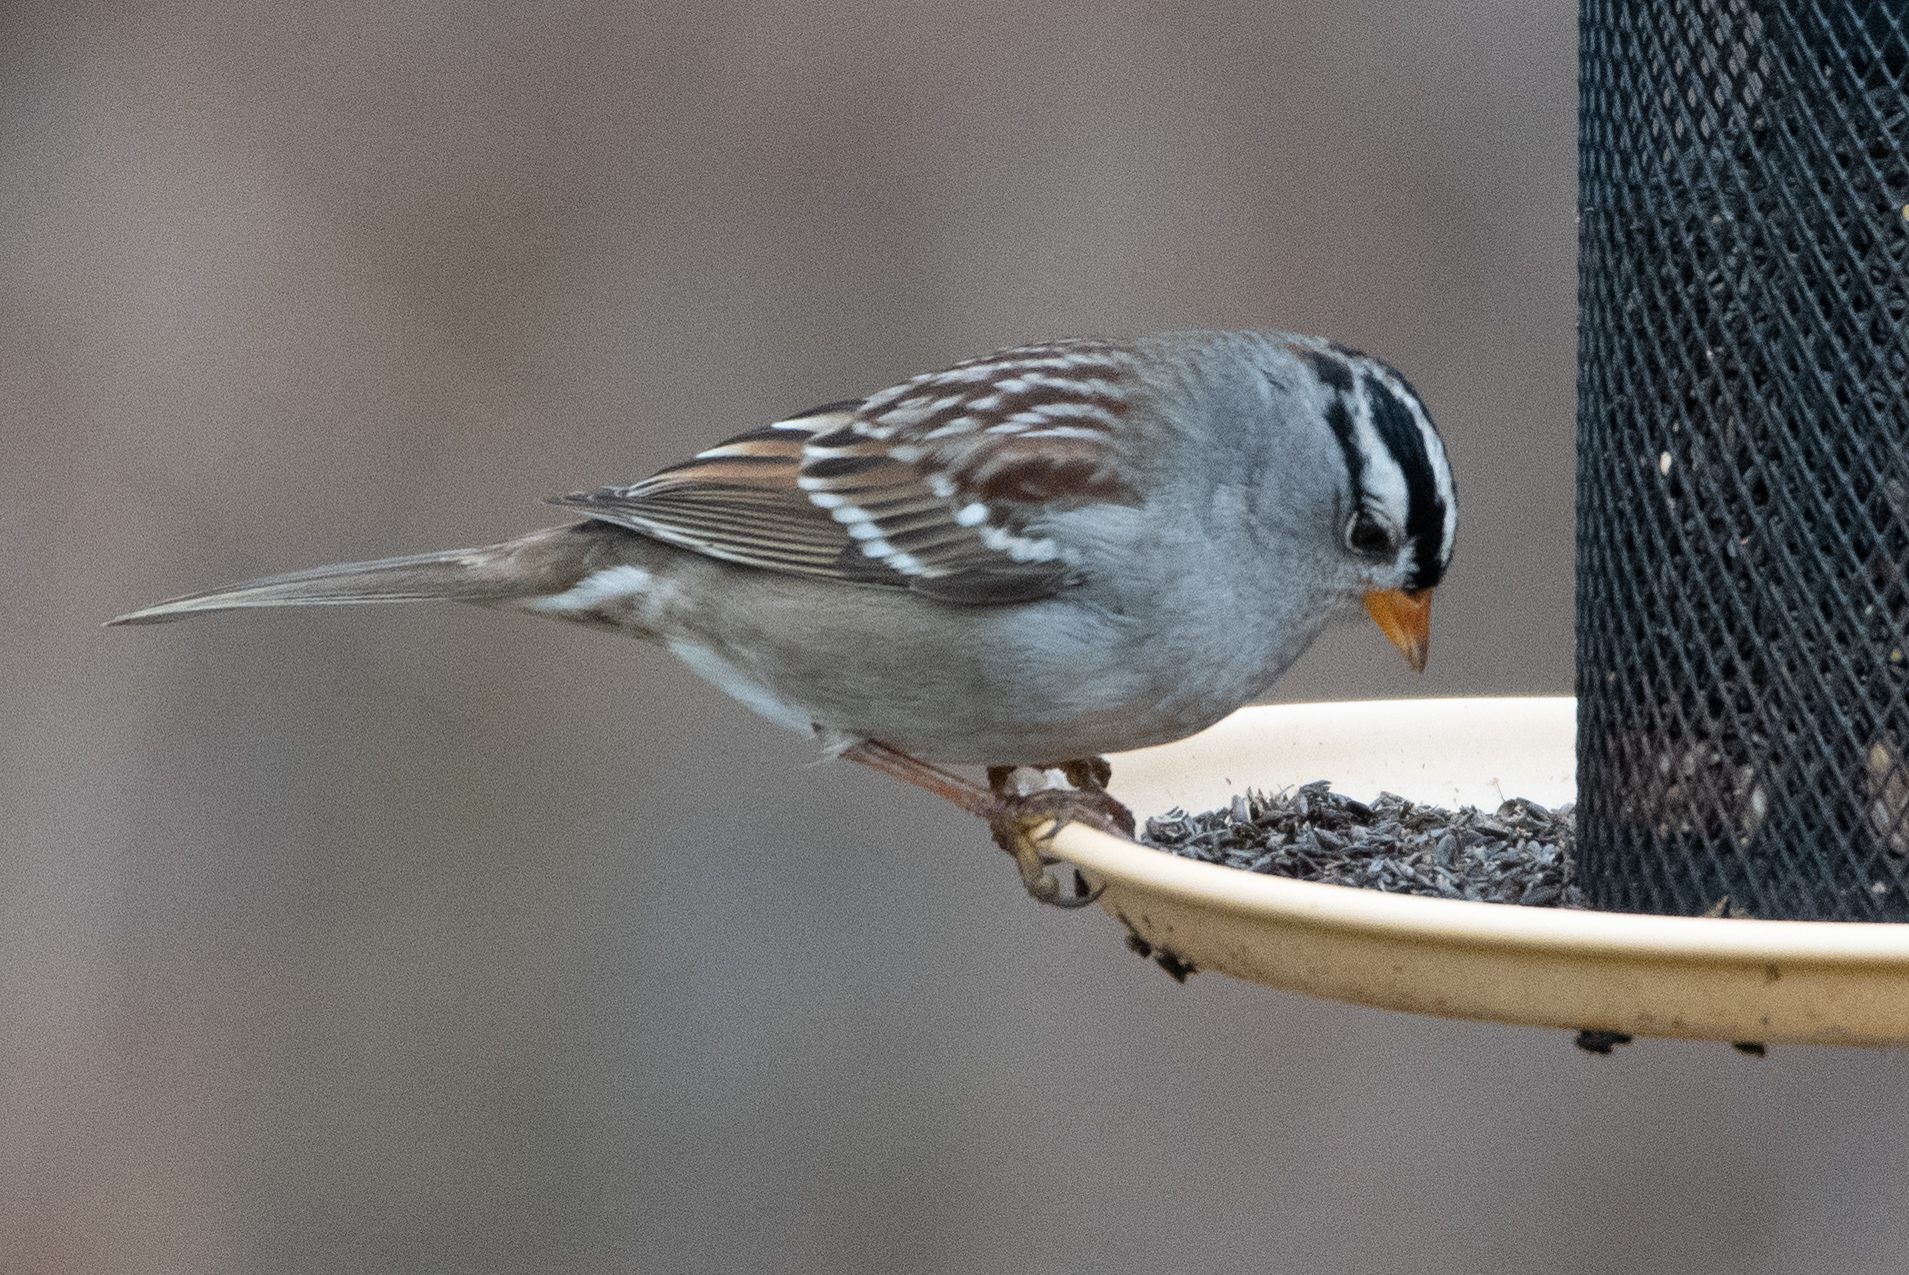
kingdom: Animalia
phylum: Chordata
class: Aves
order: Passeriformes
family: Passerellidae
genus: Zonotrichia
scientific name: Zonotrichia leucophrys
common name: White-crowned sparrow
